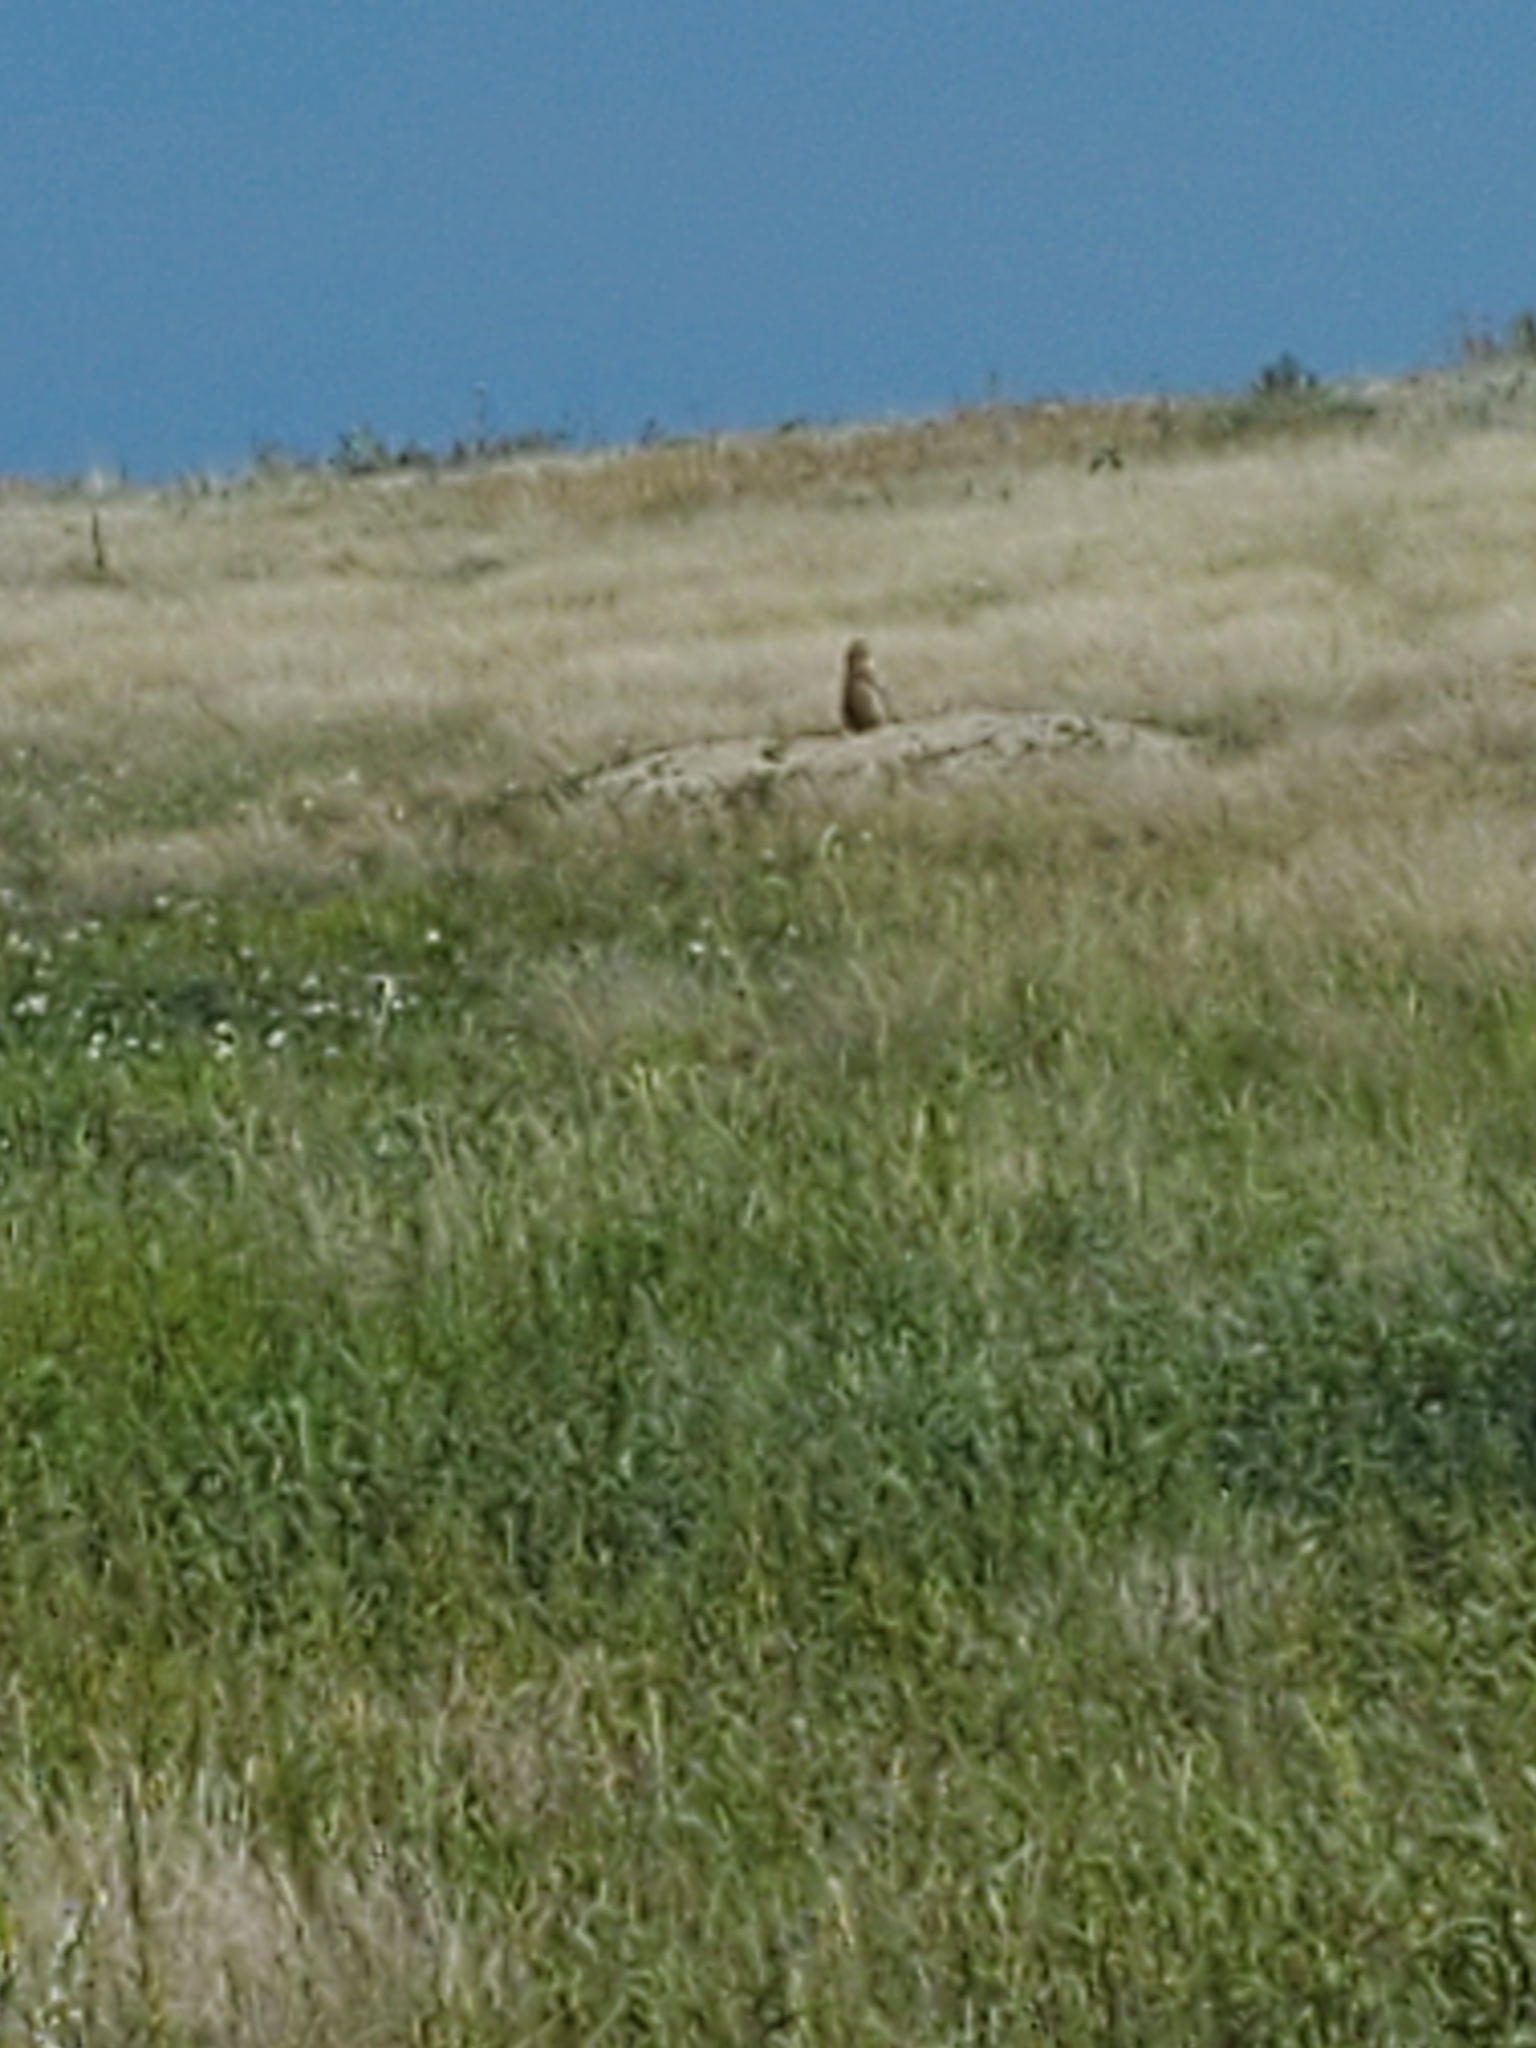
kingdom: Animalia
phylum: Chordata
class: Mammalia
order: Rodentia
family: Sciuridae
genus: Cynomys
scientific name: Cynomys ludovicianus
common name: Black-tailed prairie dog
